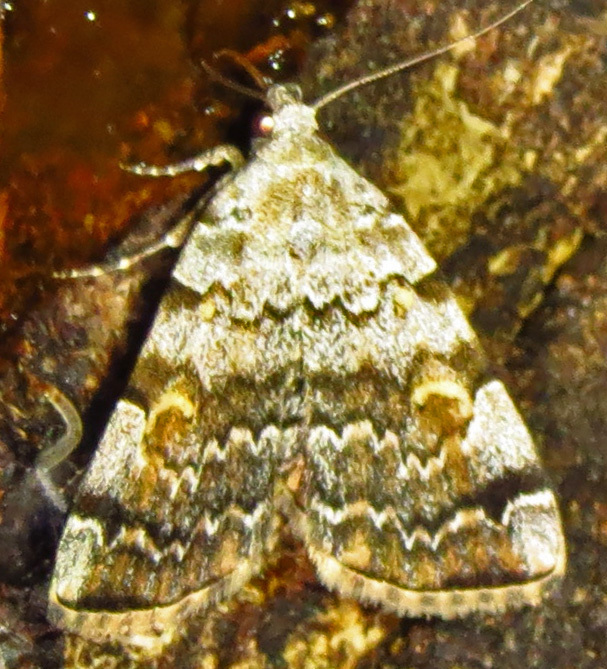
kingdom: Animalia
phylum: Arthropoda
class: Insecta
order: Lepidoptera
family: Erebidae
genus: Idia
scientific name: Idia americalis
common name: American idia moth
